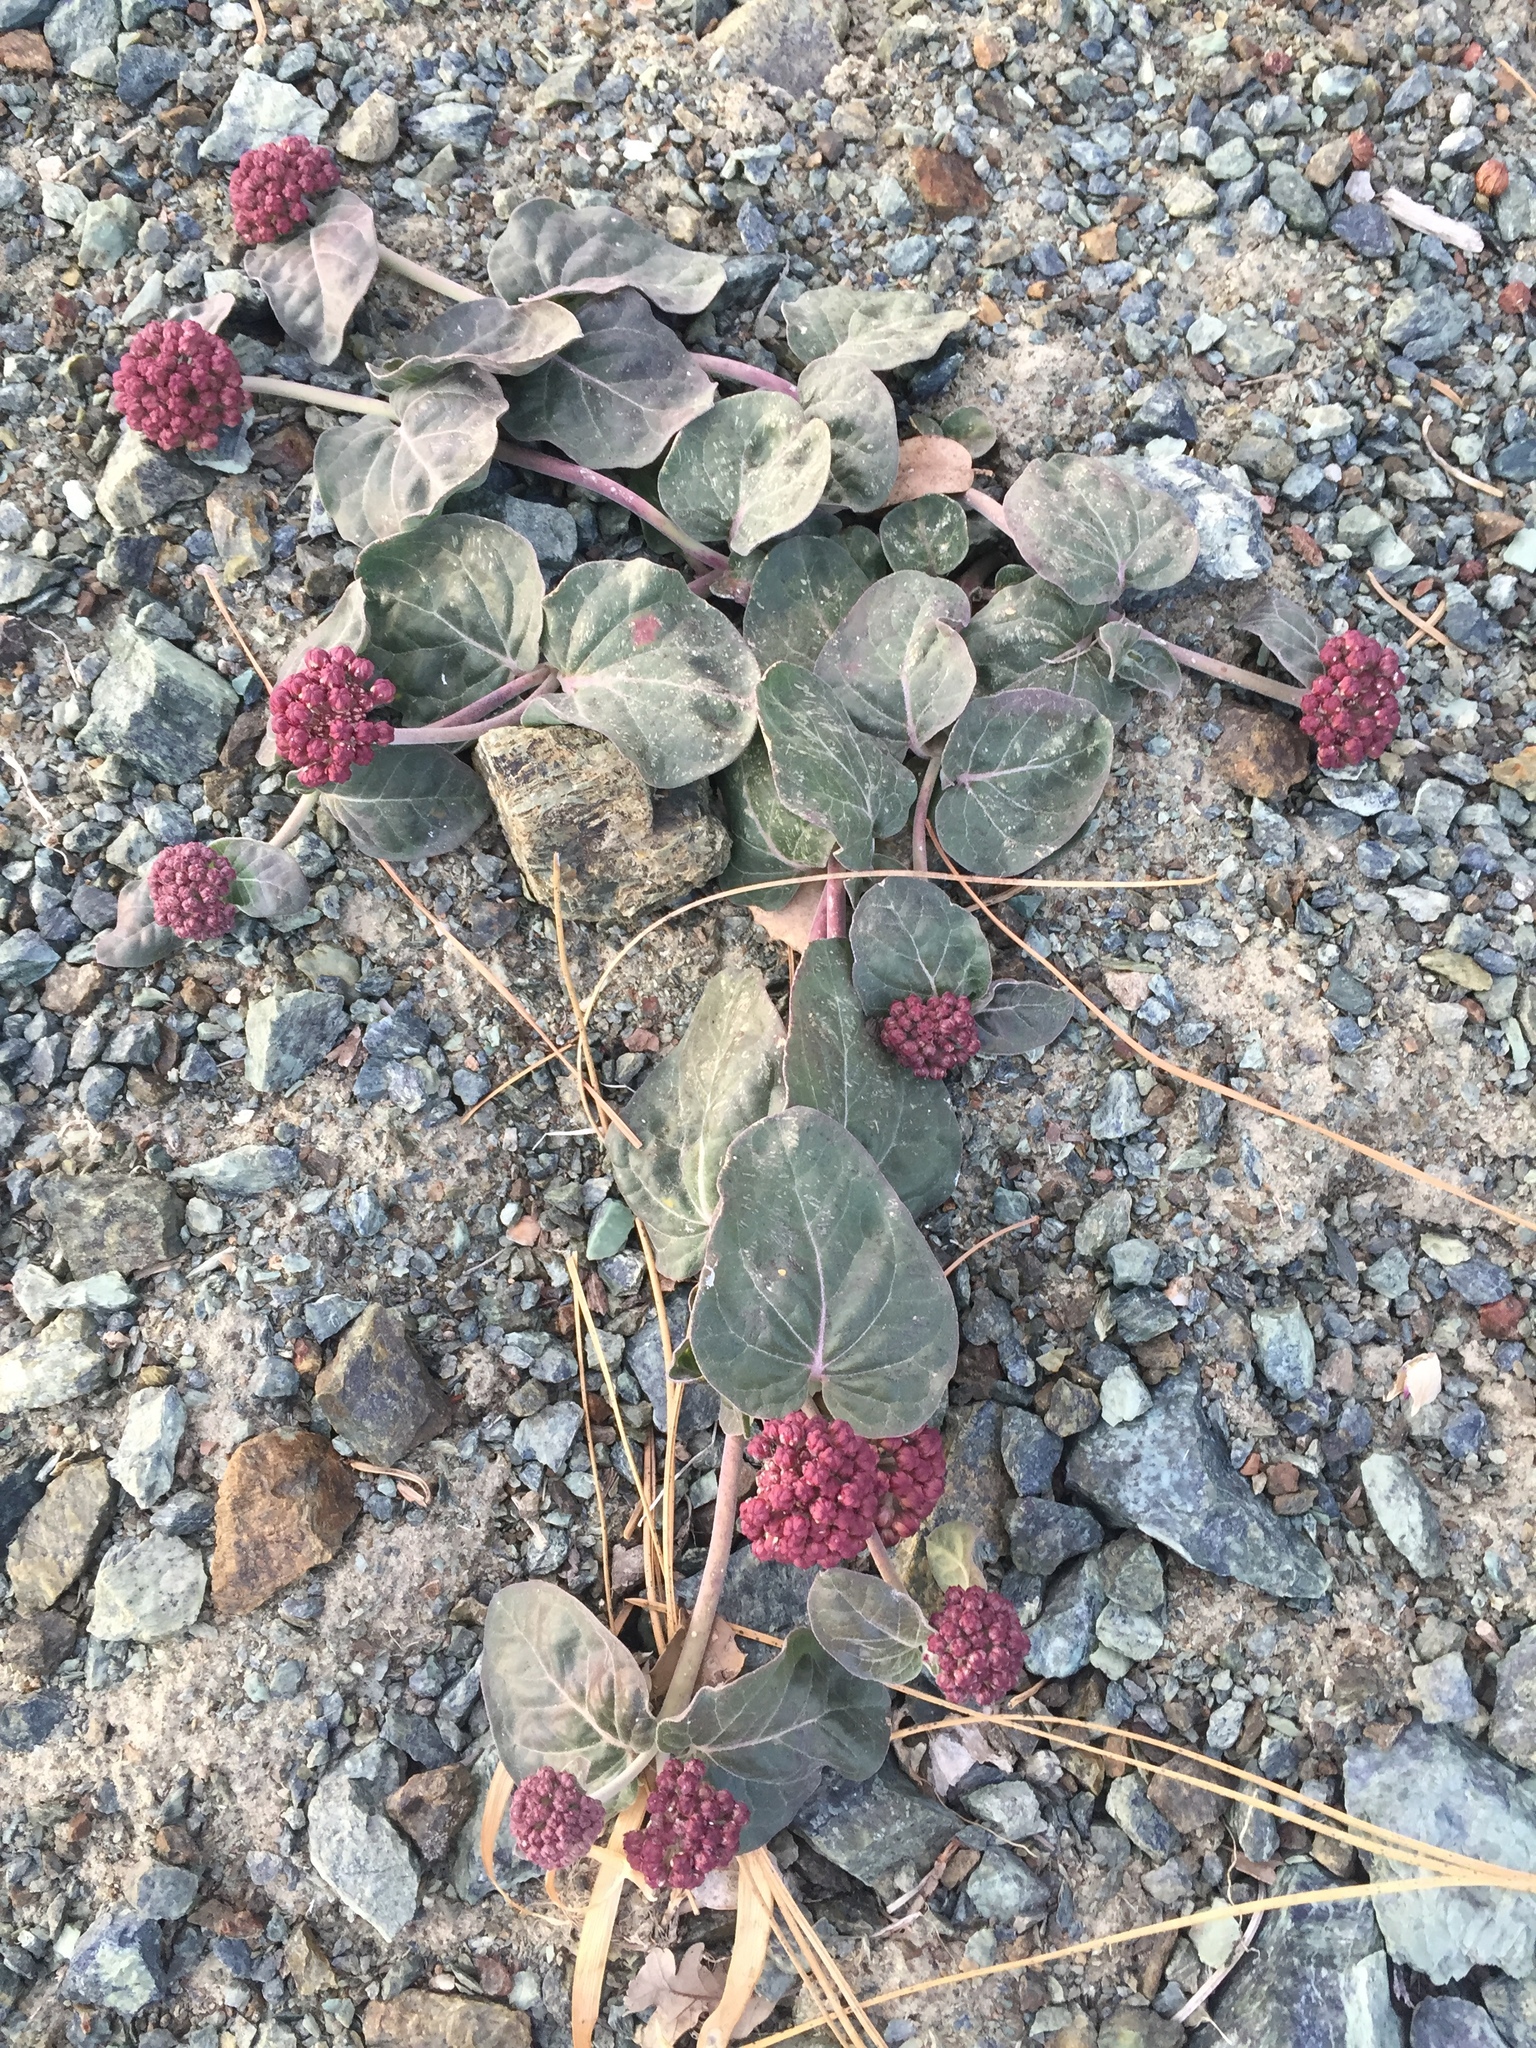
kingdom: Plantae
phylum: Tracheophyta
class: Magnoliopsida
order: Gentianales
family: Apocynaceae
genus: Asclepias
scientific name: Asclepias solanoana
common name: Serpentine milkweed
